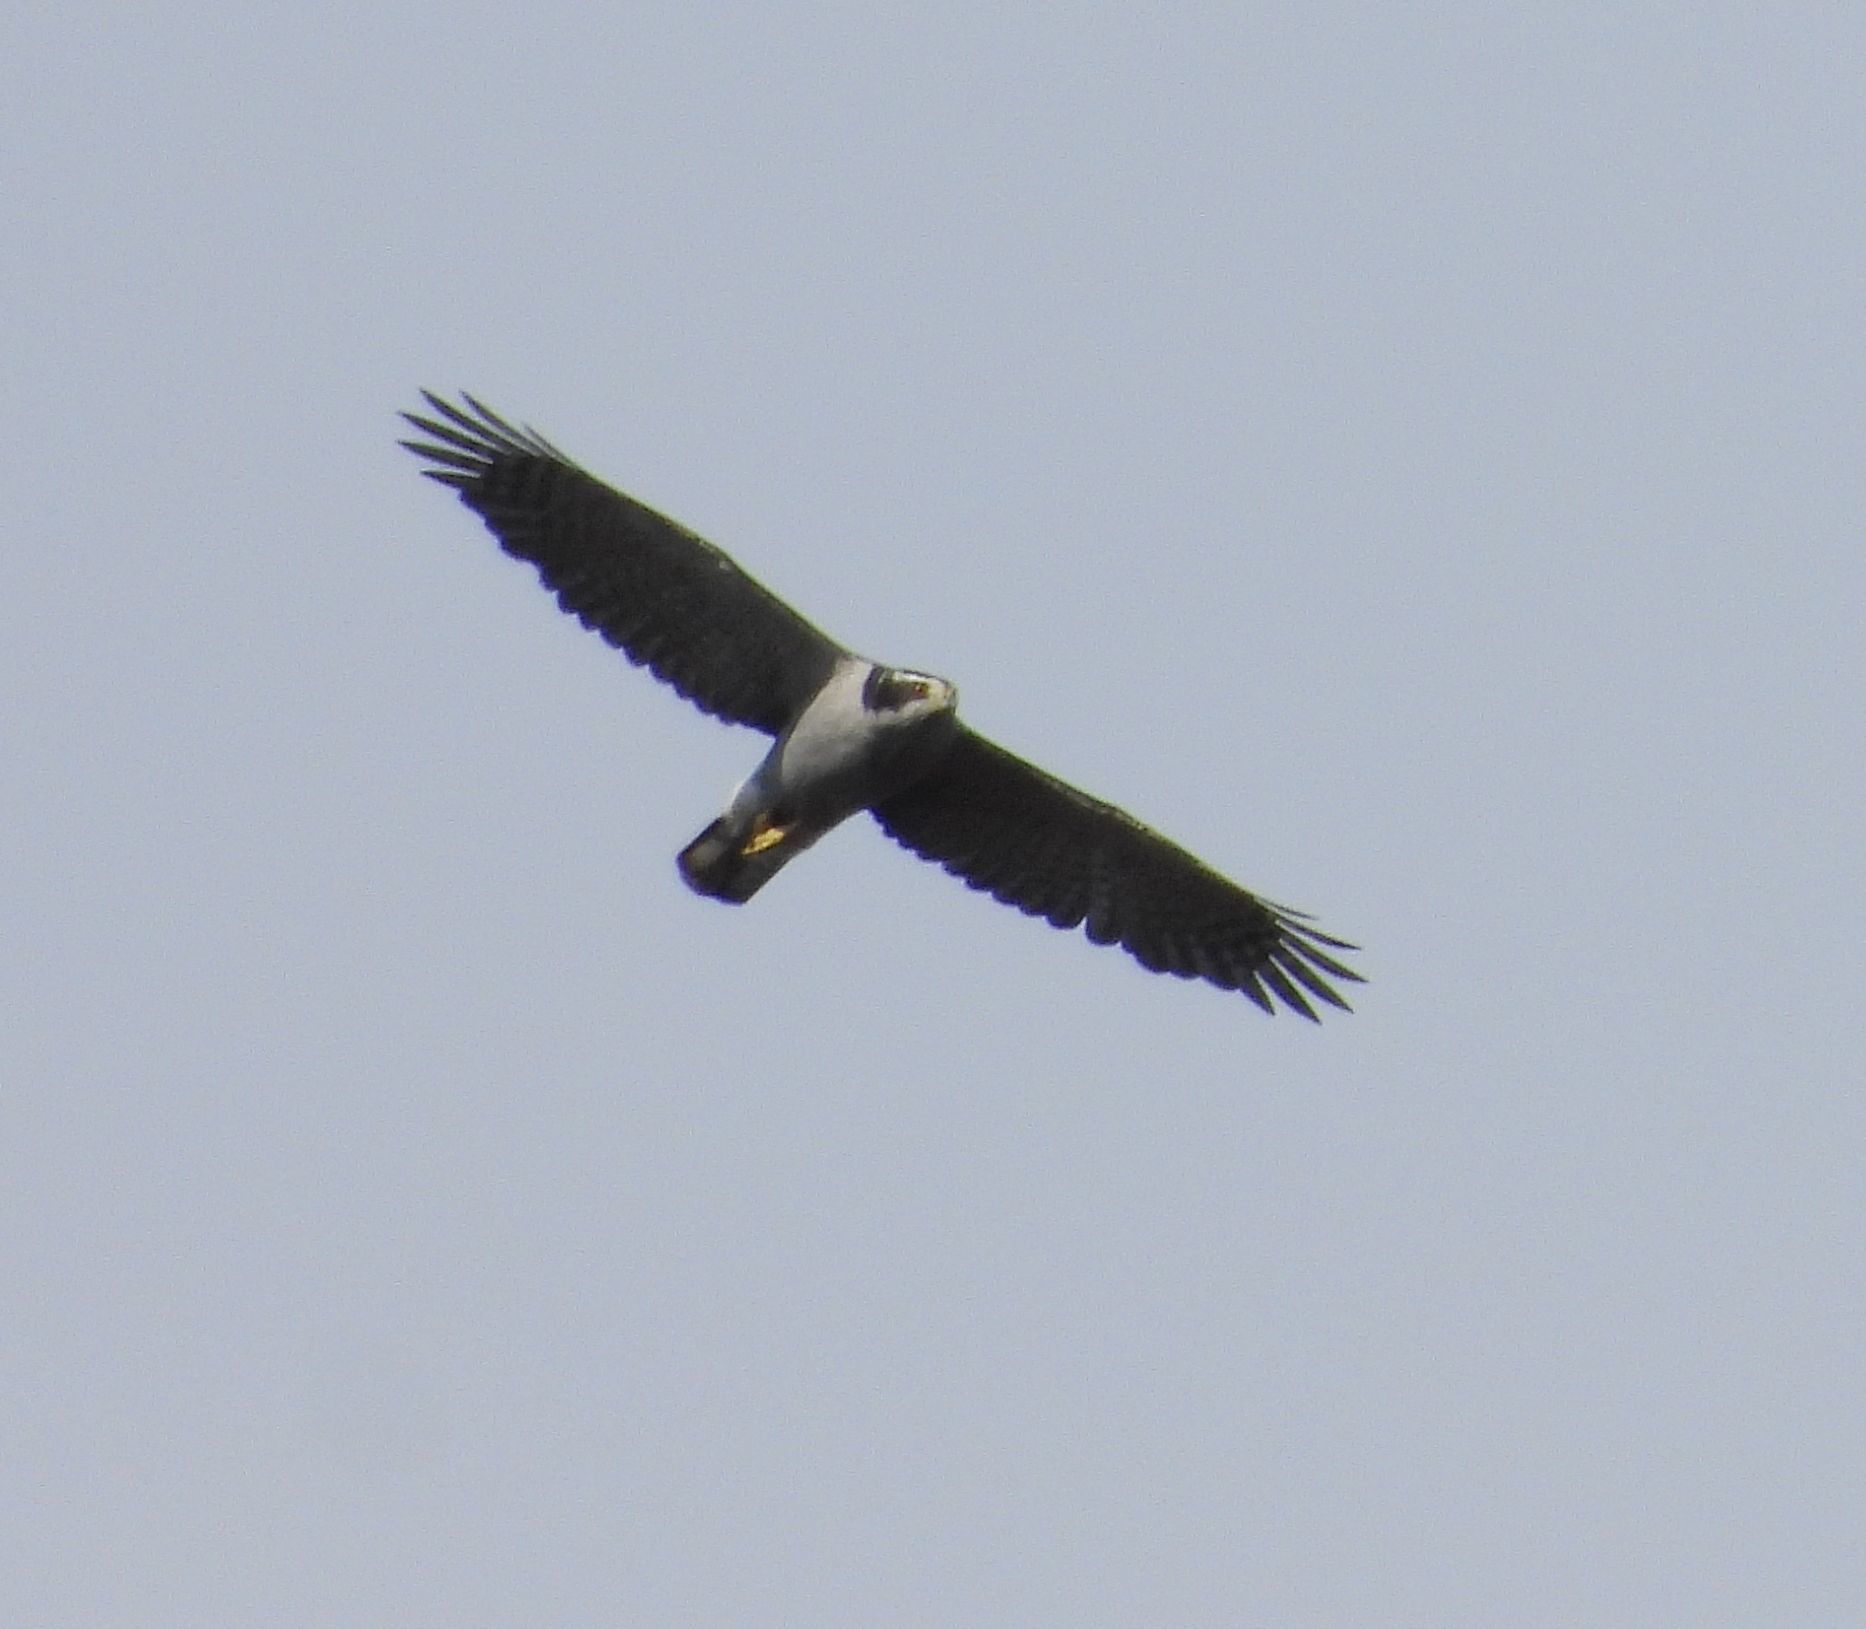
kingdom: Animalia
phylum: Chordata
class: Aves
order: Accipitriformes
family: Accipitridae
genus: Accipiter
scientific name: Accipiter gentilis
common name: Northern goshawk
